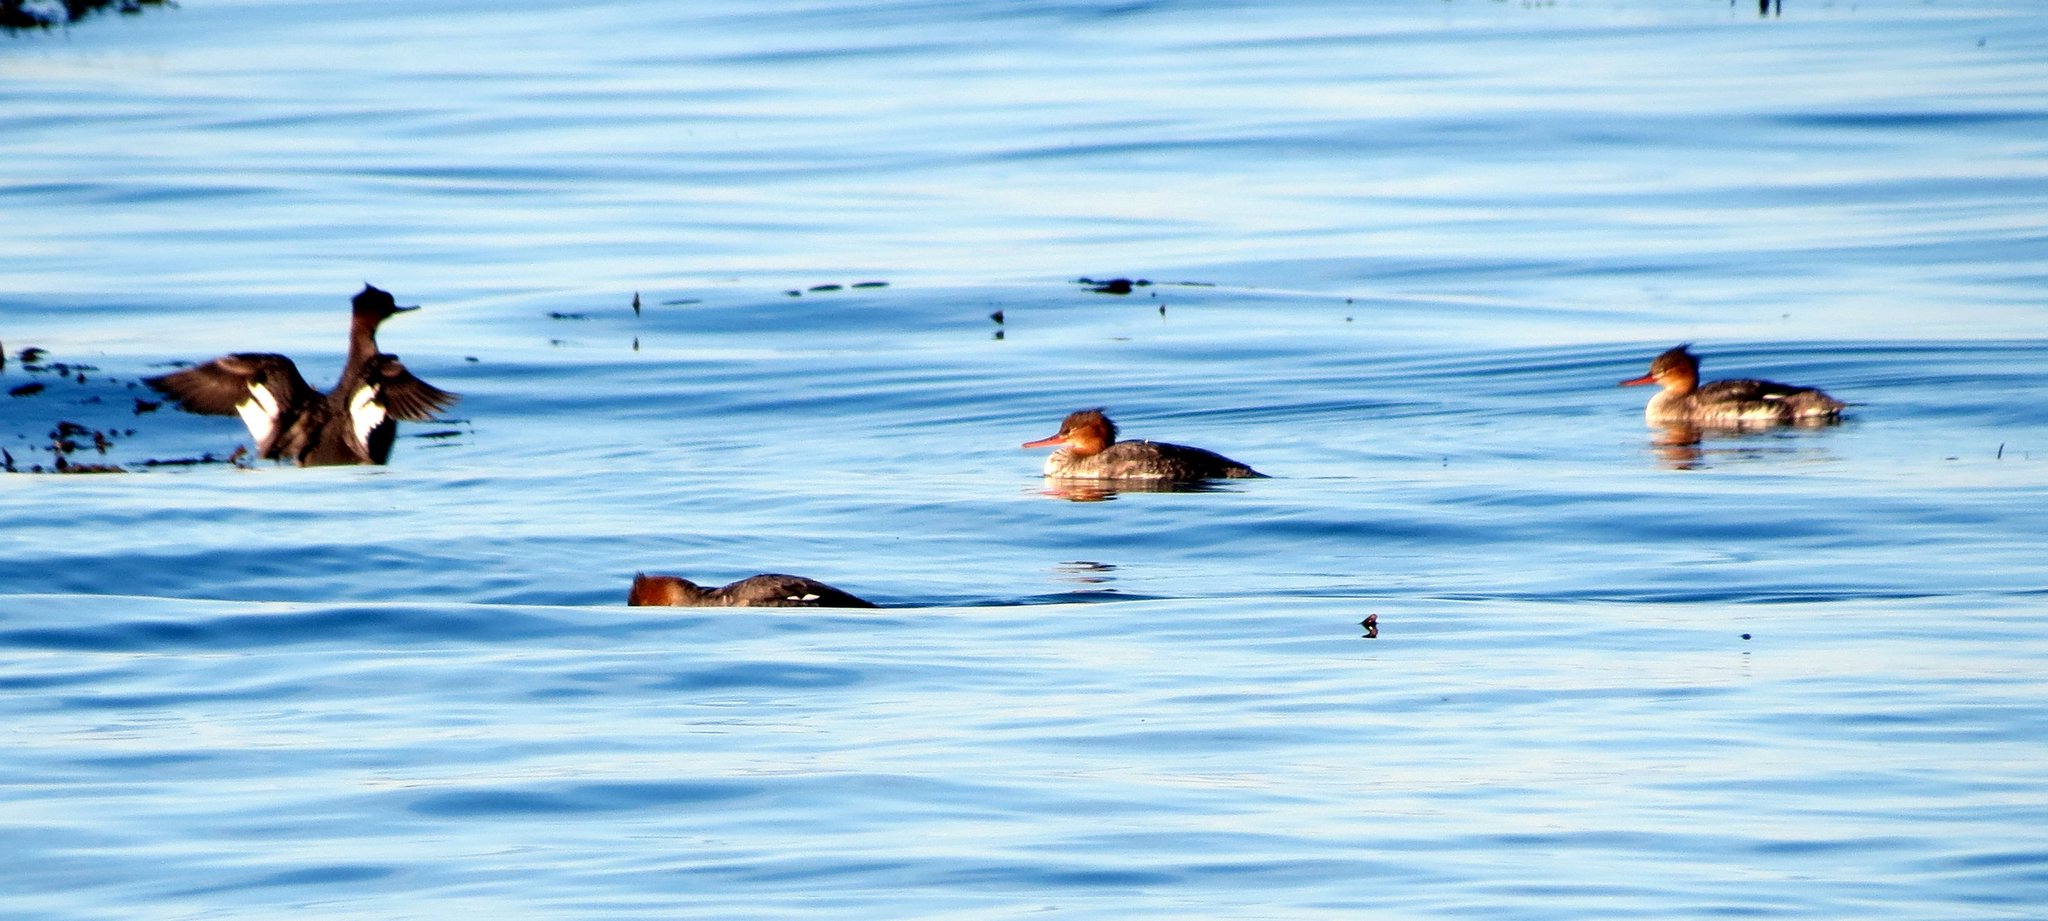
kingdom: Animalia
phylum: Chordata
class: Aves
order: Anseriformes
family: Anatidae
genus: Mergus
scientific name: Mergus serrator
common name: Red-breasted merganser
